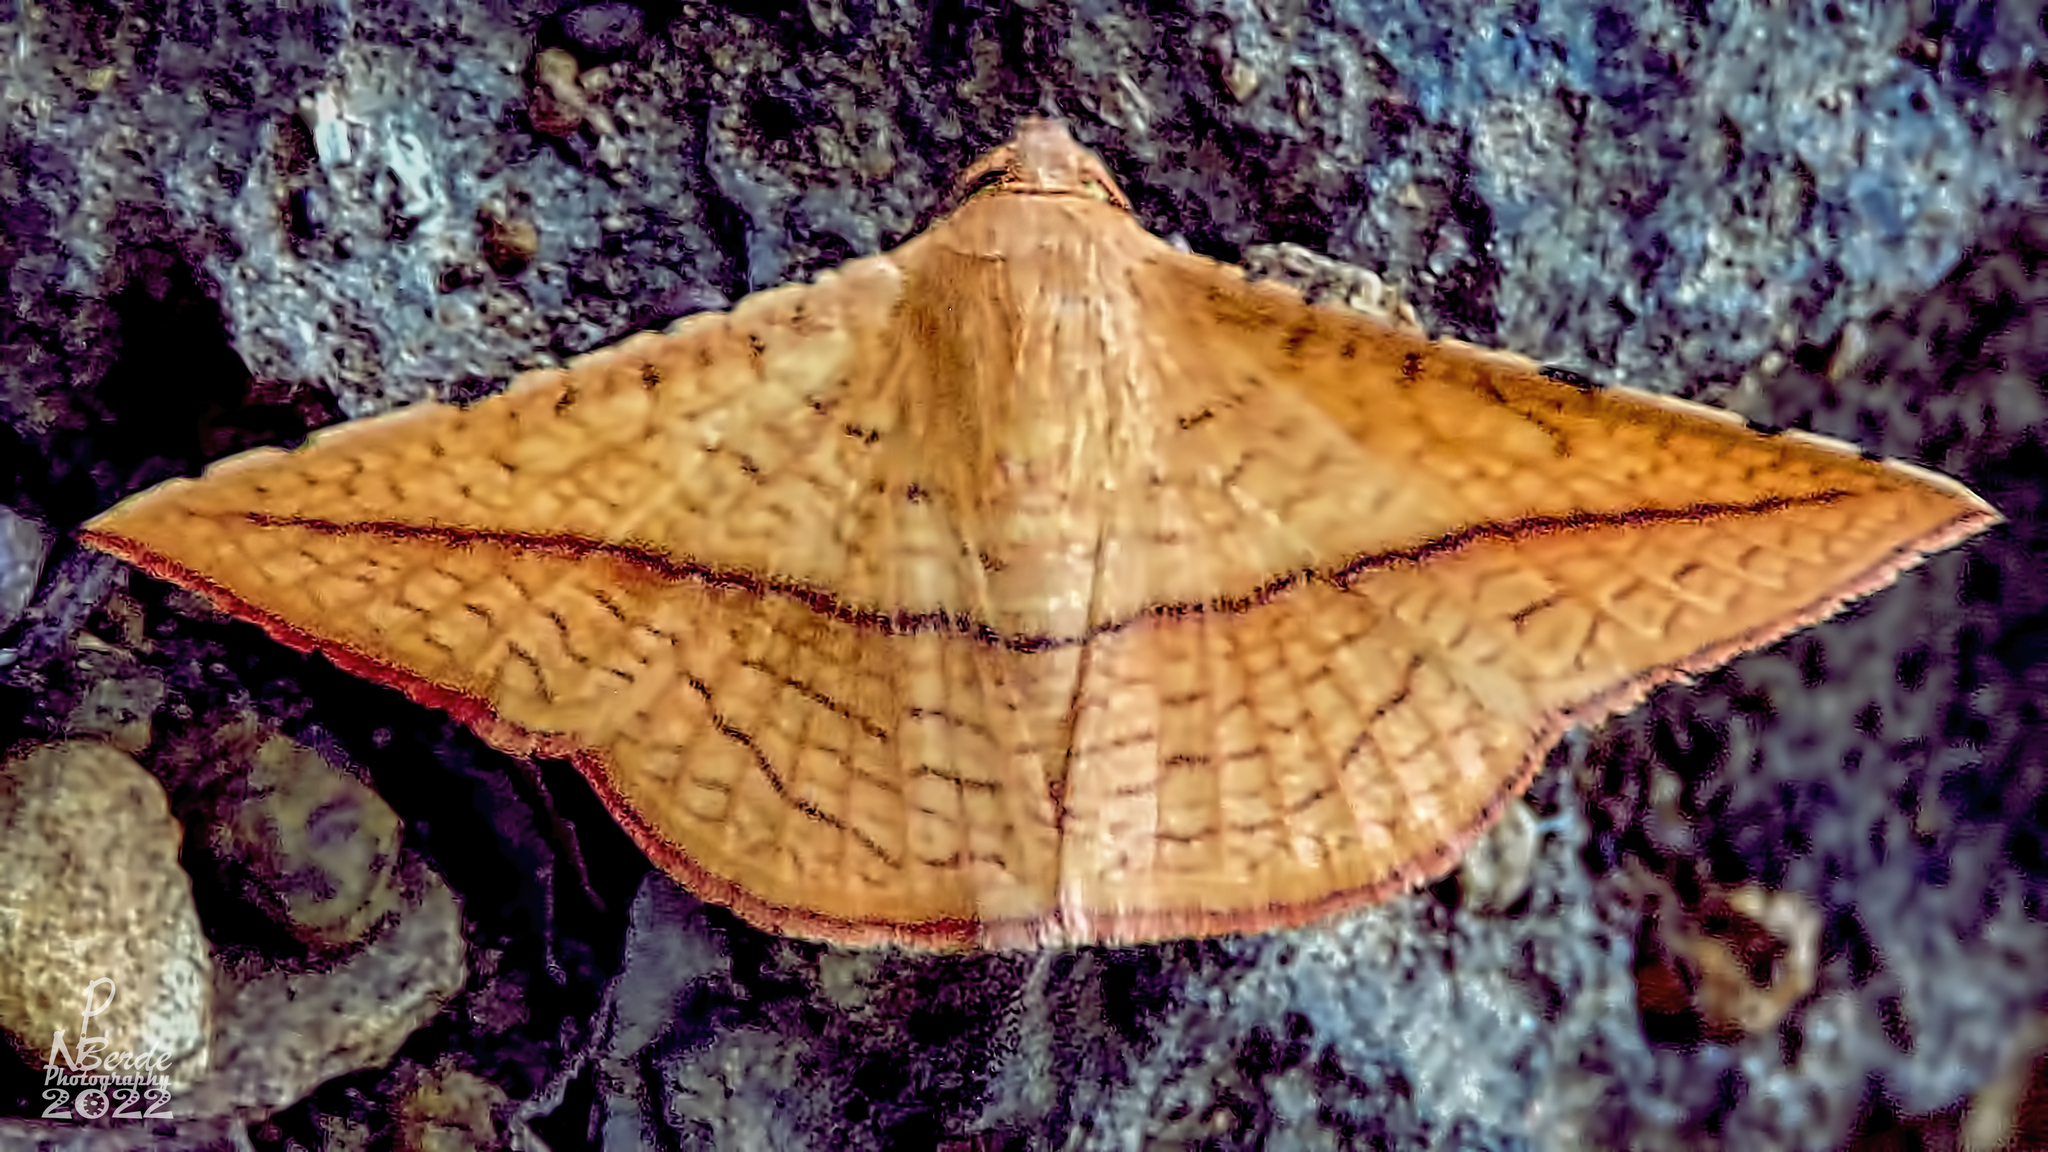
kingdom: Animalia
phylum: Arthropoda
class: Insecta
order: Lepidoptera
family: Thyrididae
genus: Striglina
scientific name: Striglina scitaria
